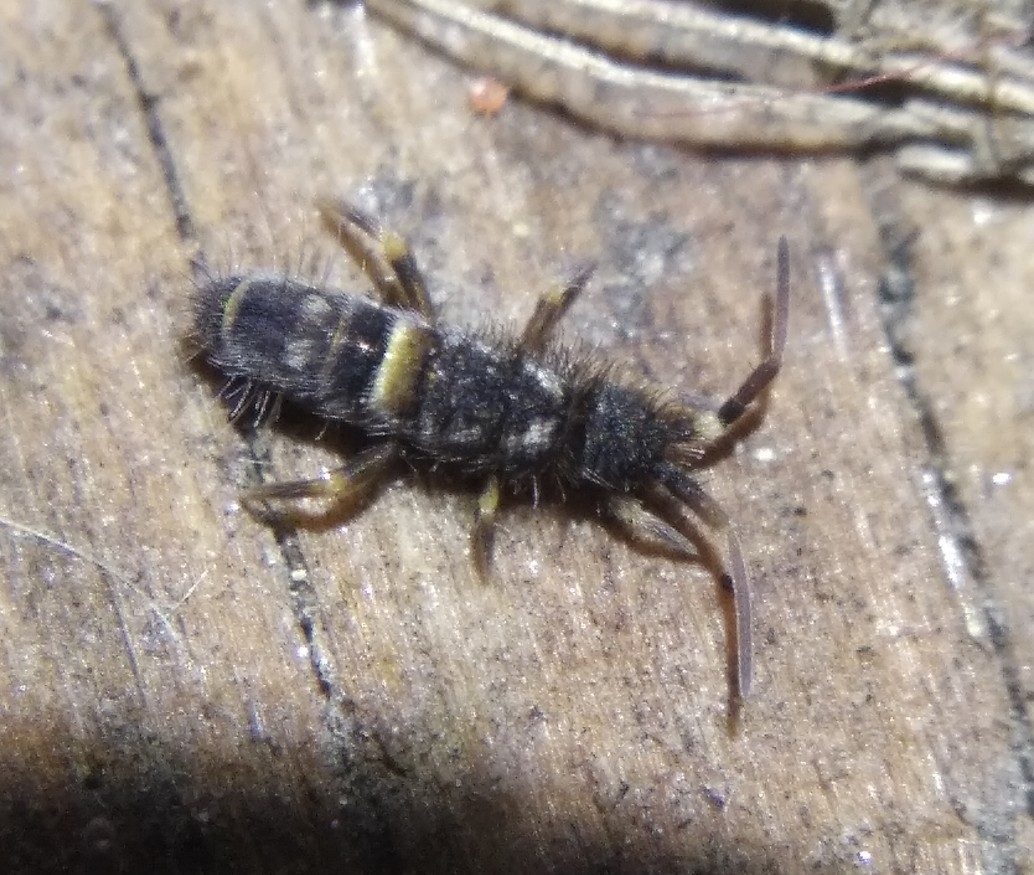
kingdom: Animalia
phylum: Arthropoda
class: Collembola
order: Entomobryomorpha
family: Orchesellidae
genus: Orchesella
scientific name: Orchesella cincta
